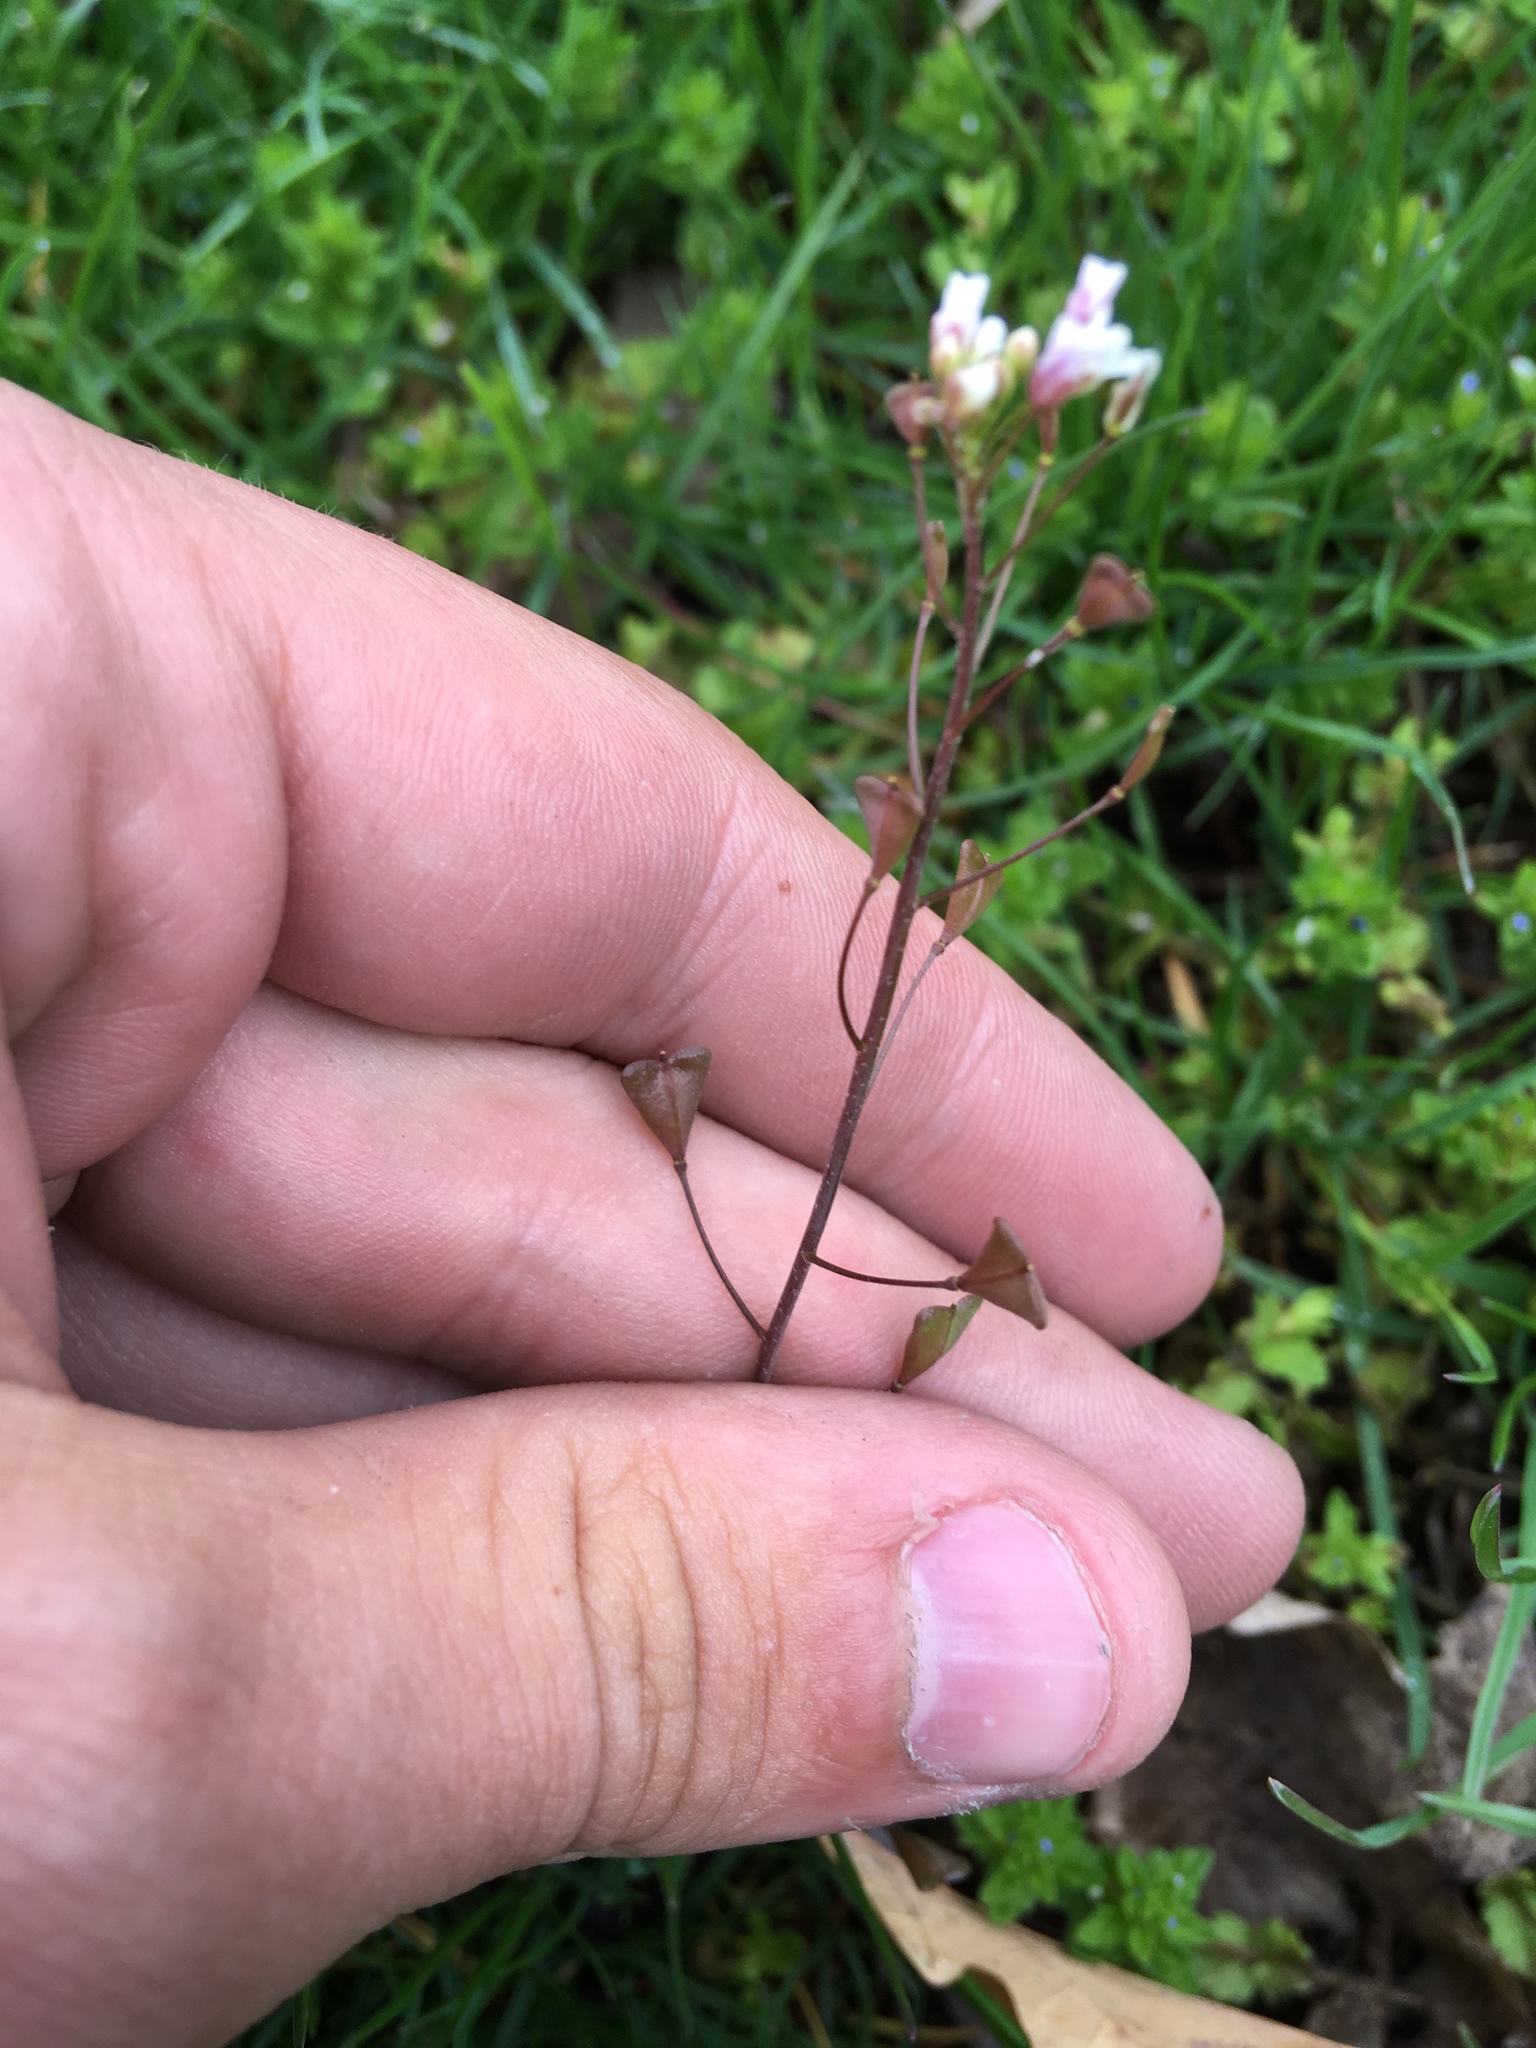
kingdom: Plantae
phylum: Tracheophyta
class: Magnoliopsida
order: Brassicales
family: Brassicaceae
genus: Capsella
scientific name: Capsella bursa-pastoris
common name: Shepherd's purse
